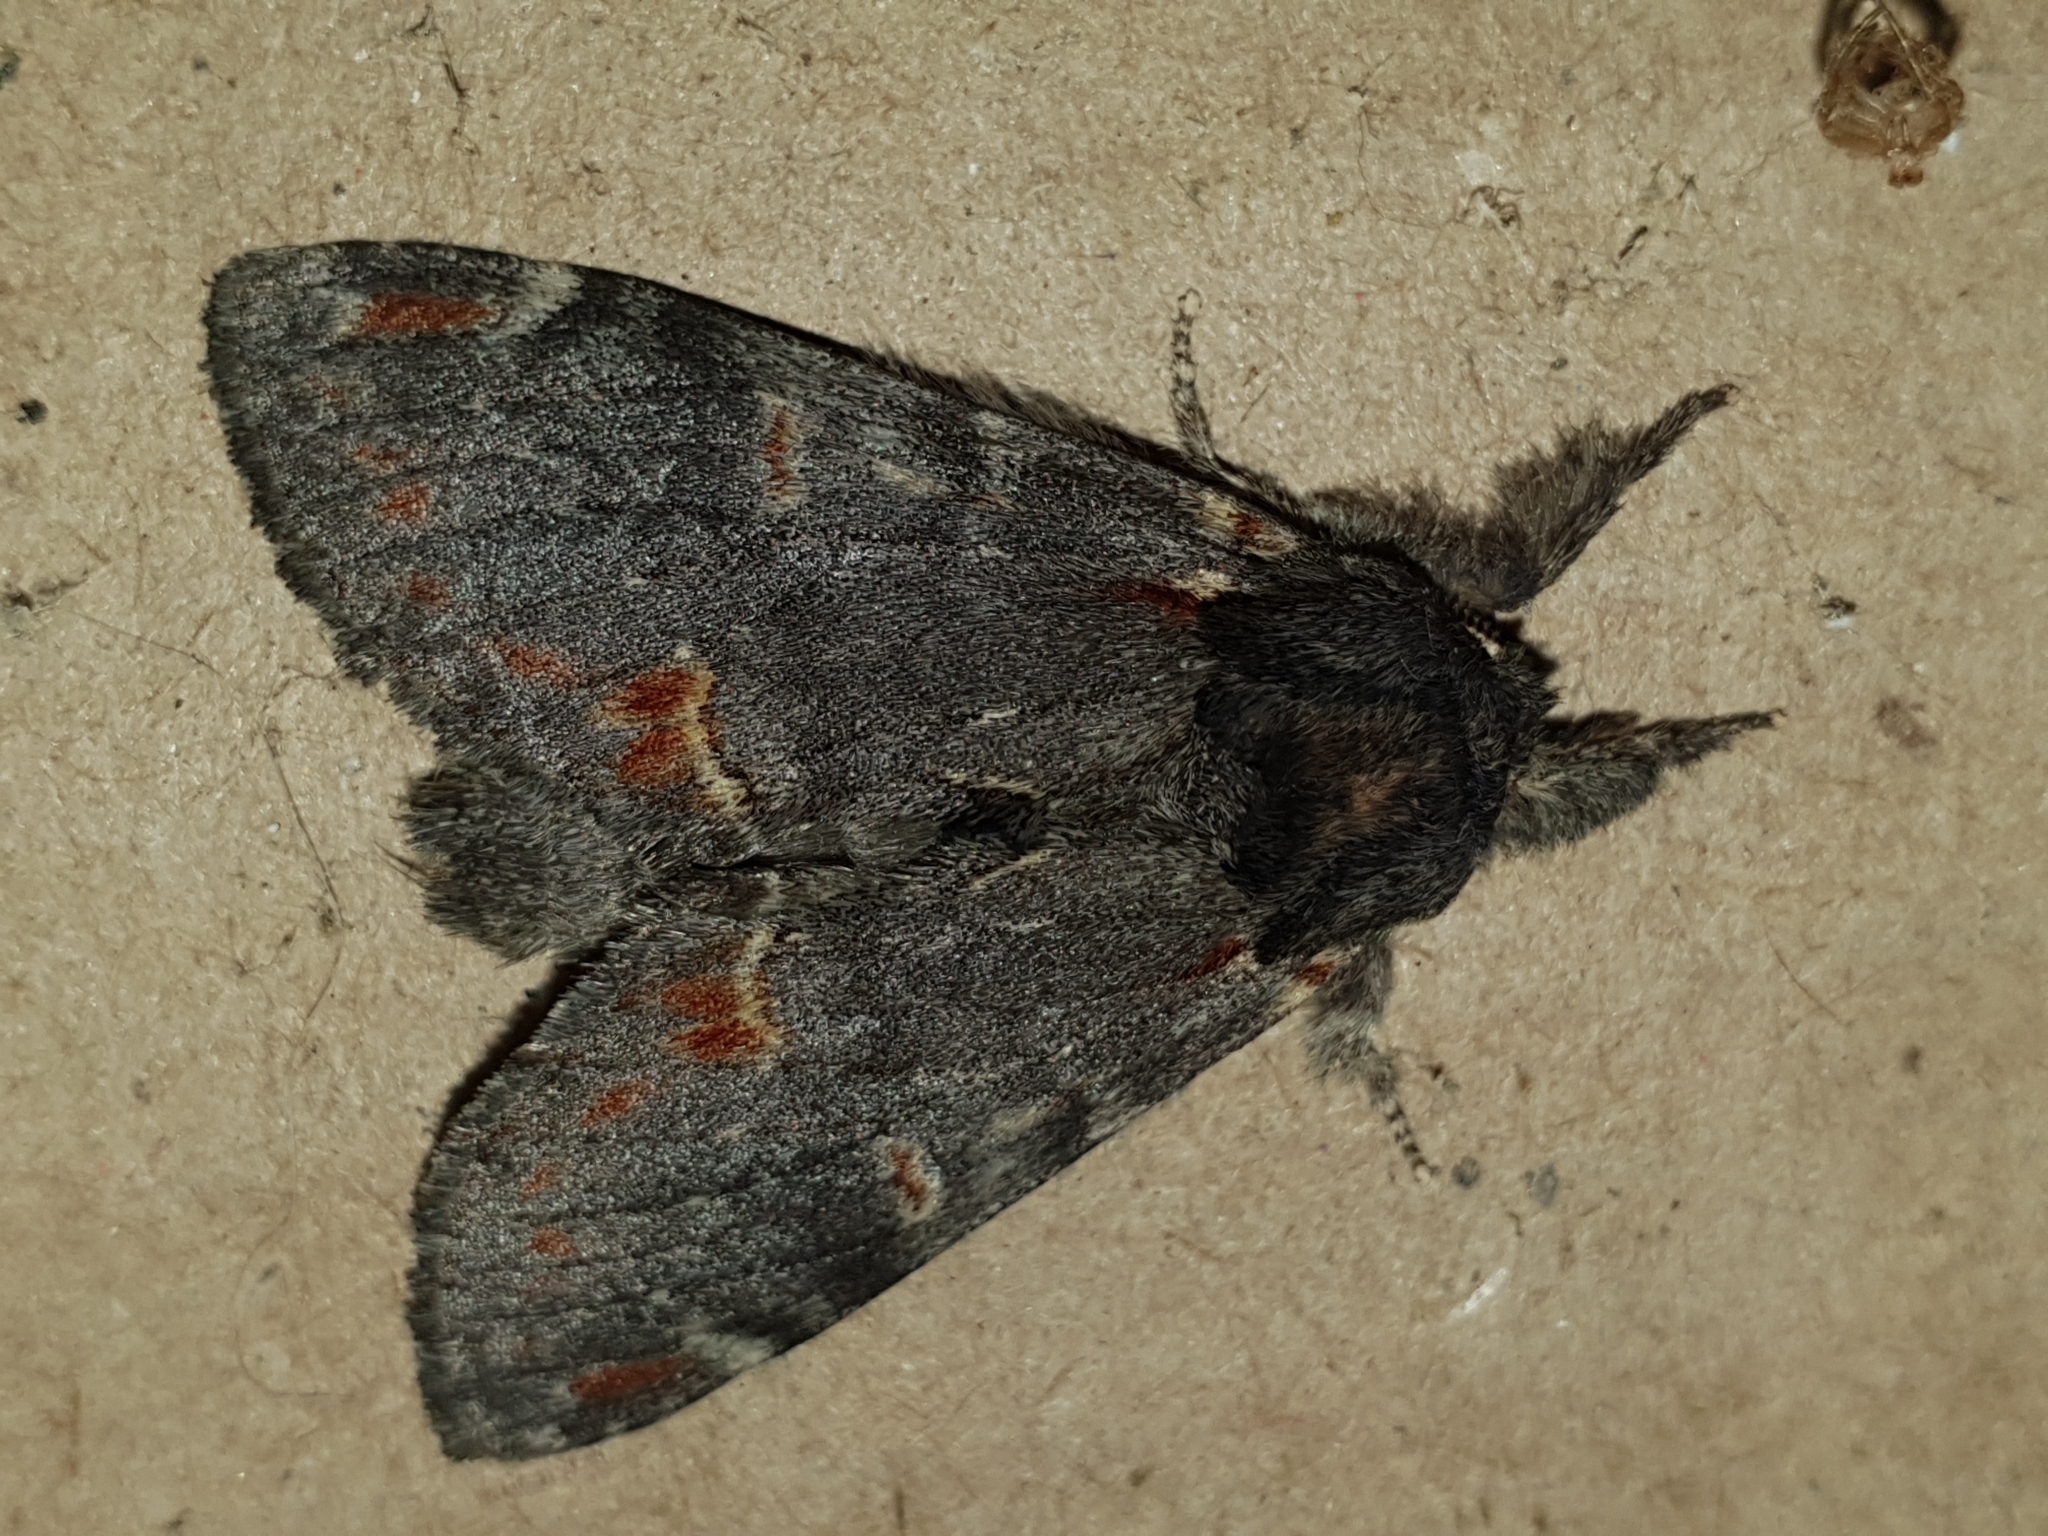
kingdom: Animalia
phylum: Arthropoda
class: Insecta
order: Lepidoptera
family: Notodontidae
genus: Notodonta
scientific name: Notodonta dromedarius
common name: Iron prominent
